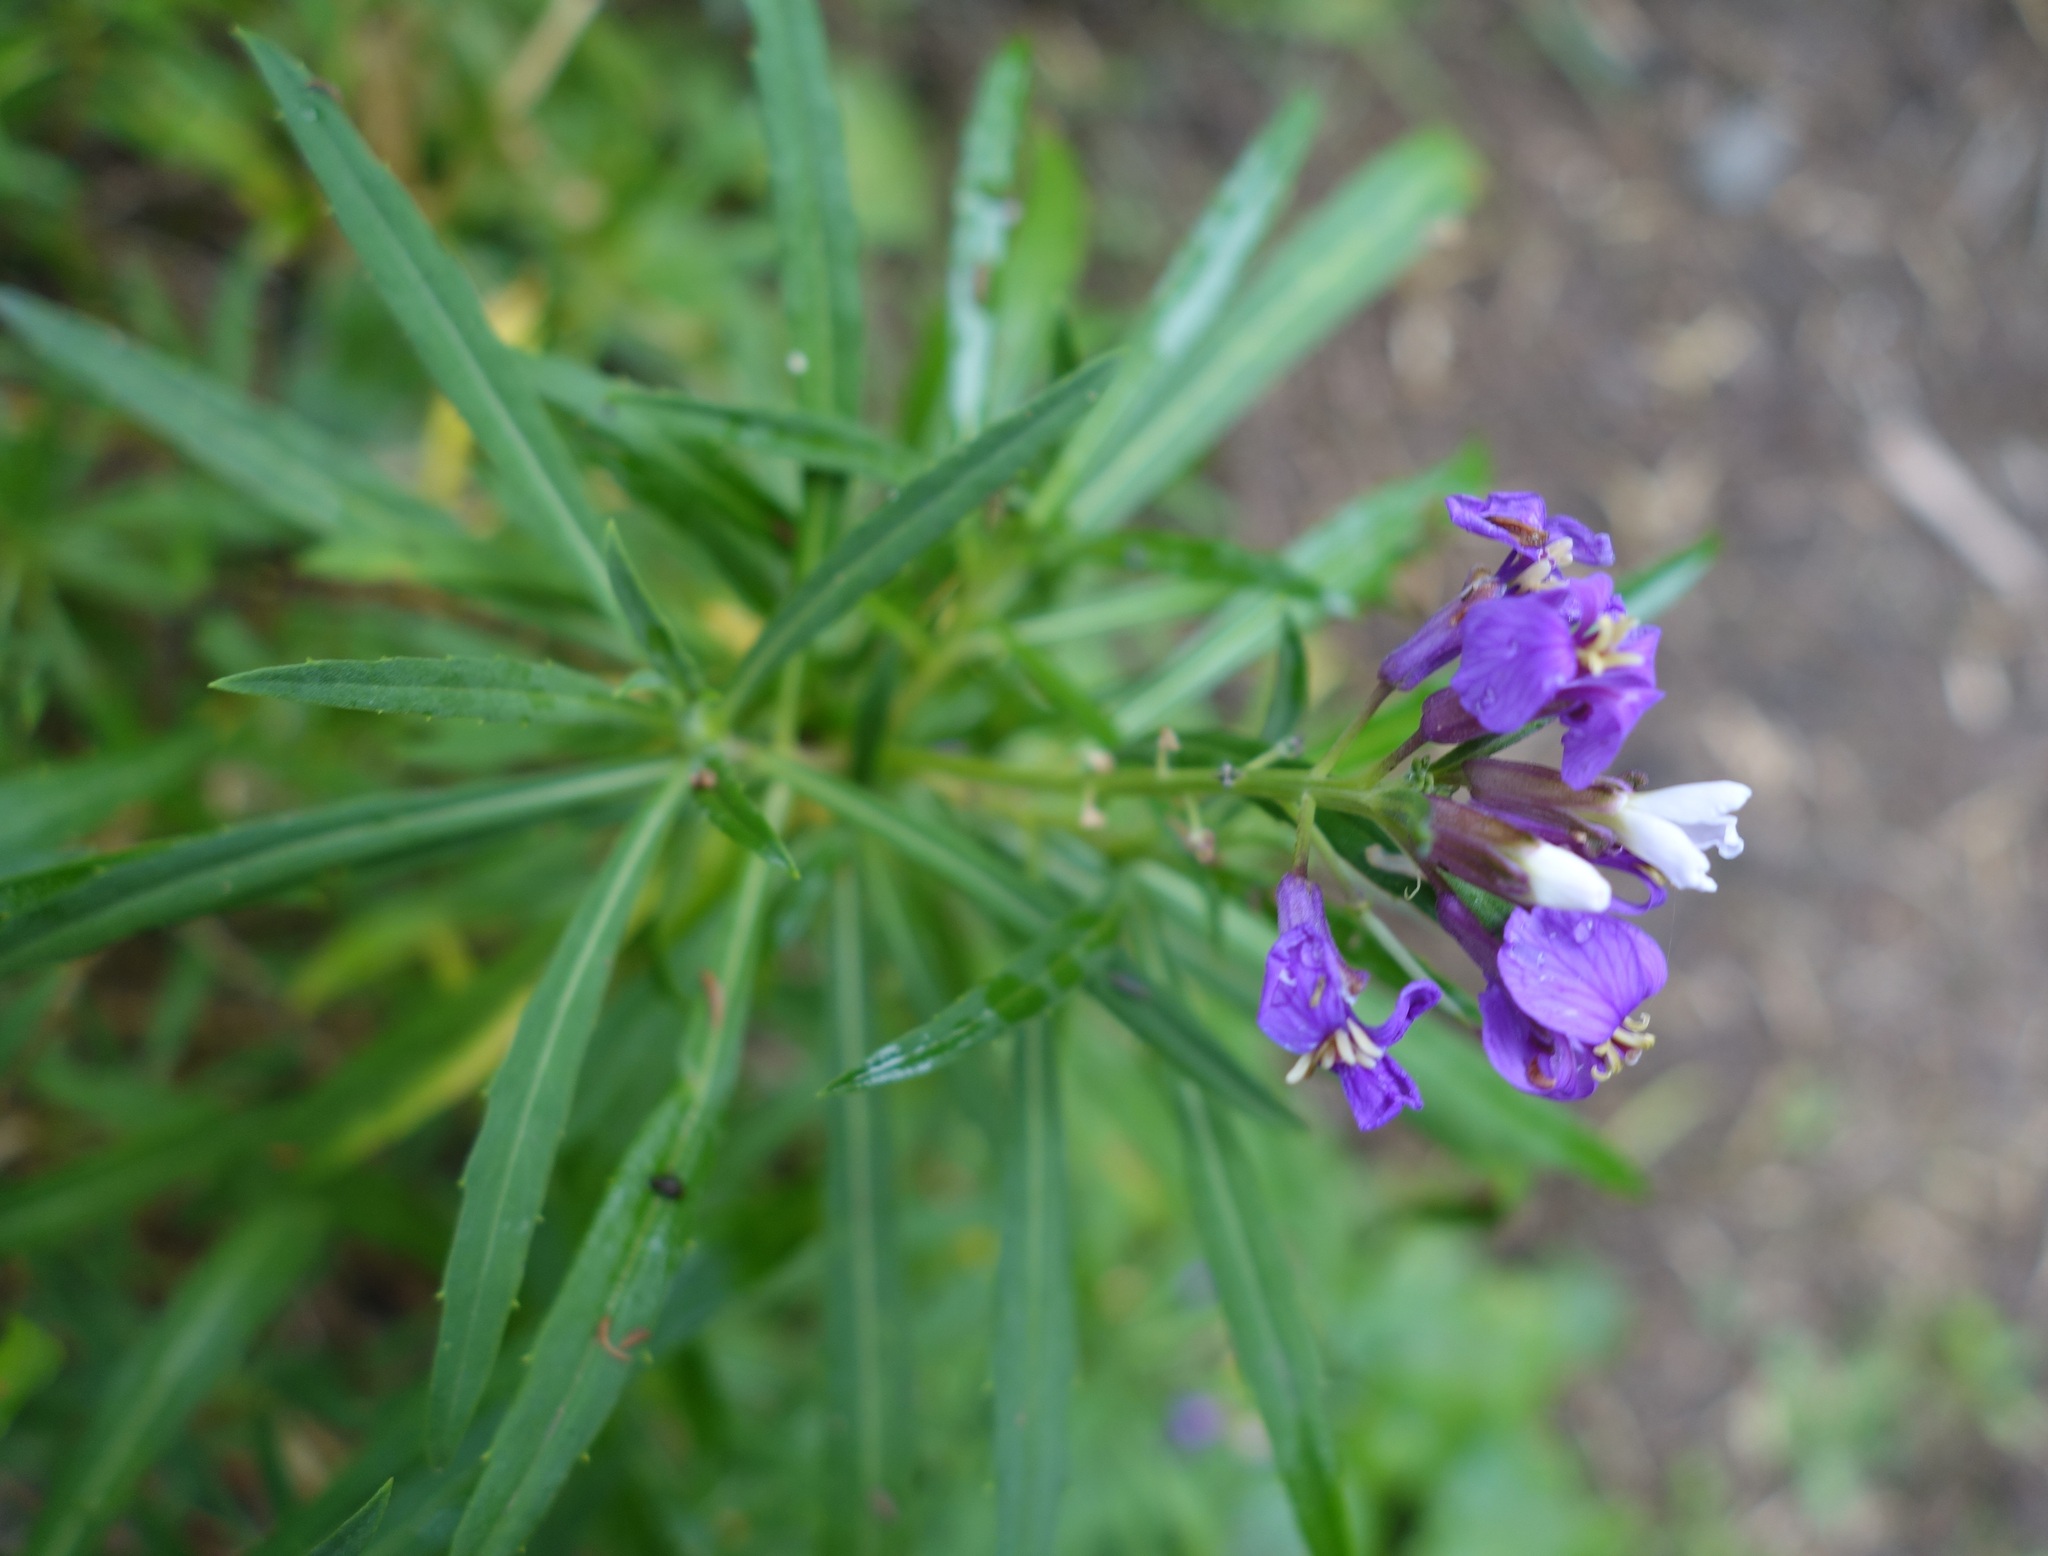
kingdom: Plantae
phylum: Tracheophyta
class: Magnoliopsida
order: Brassicales
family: Brassicaceae
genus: Erysimum
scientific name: Erysimum bicolor
